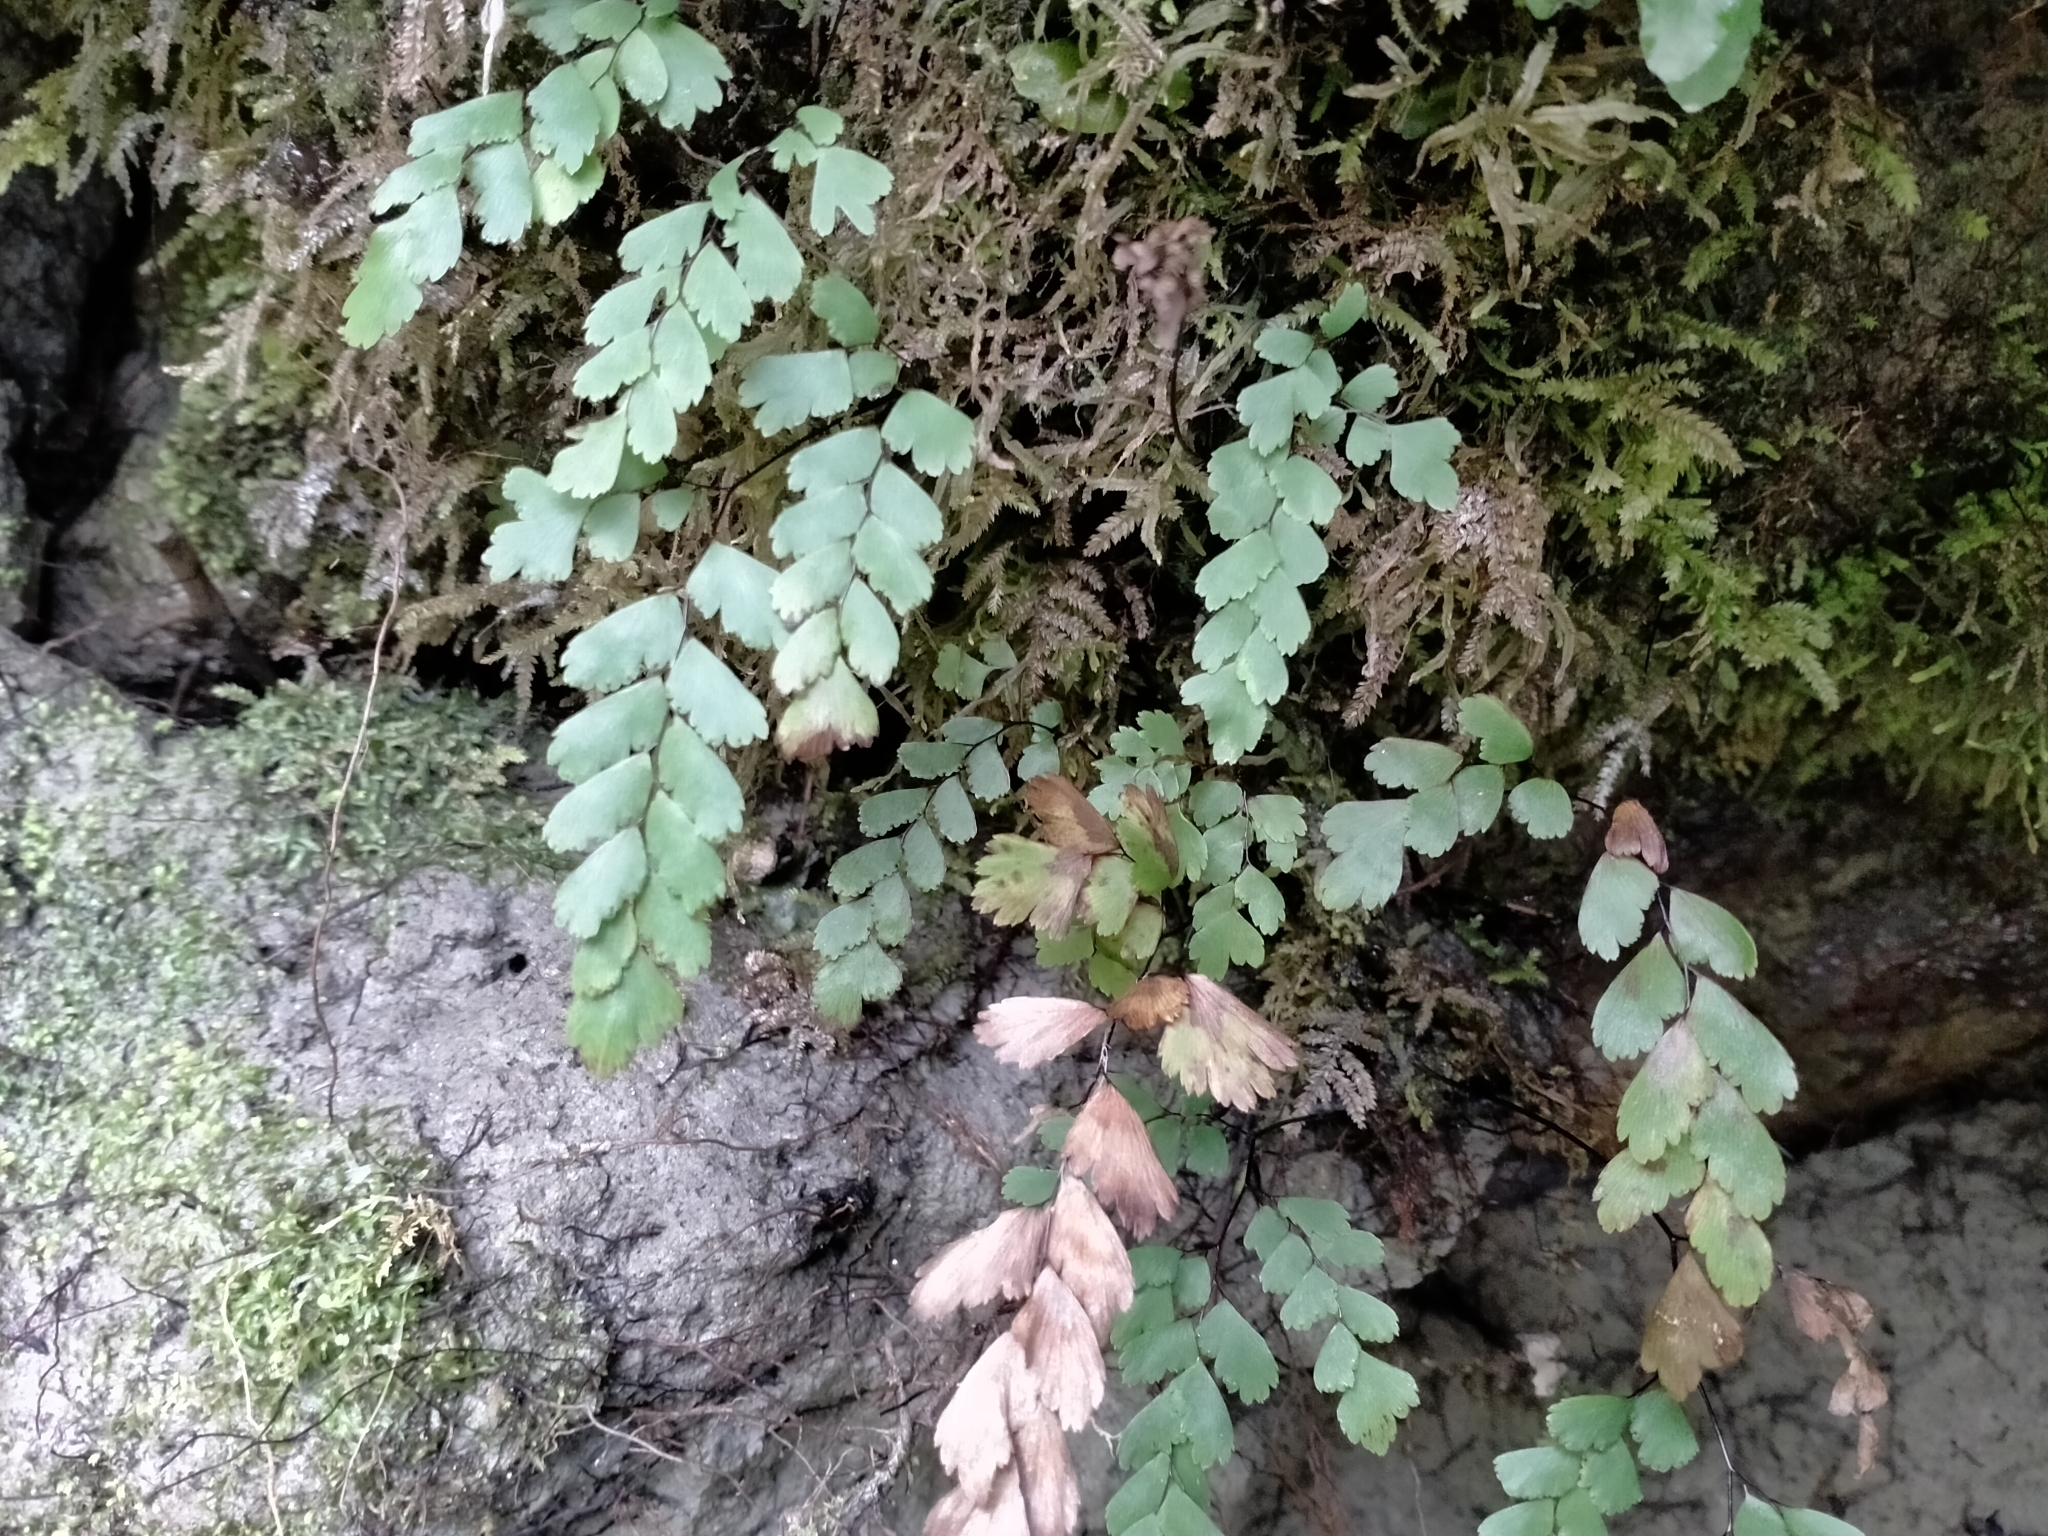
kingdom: Plantae
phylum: Tracheophyta
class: Polypodiopsida
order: Polypodiales
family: Pteridaceae
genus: Adiantum
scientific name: Adiantum cunninghamii
